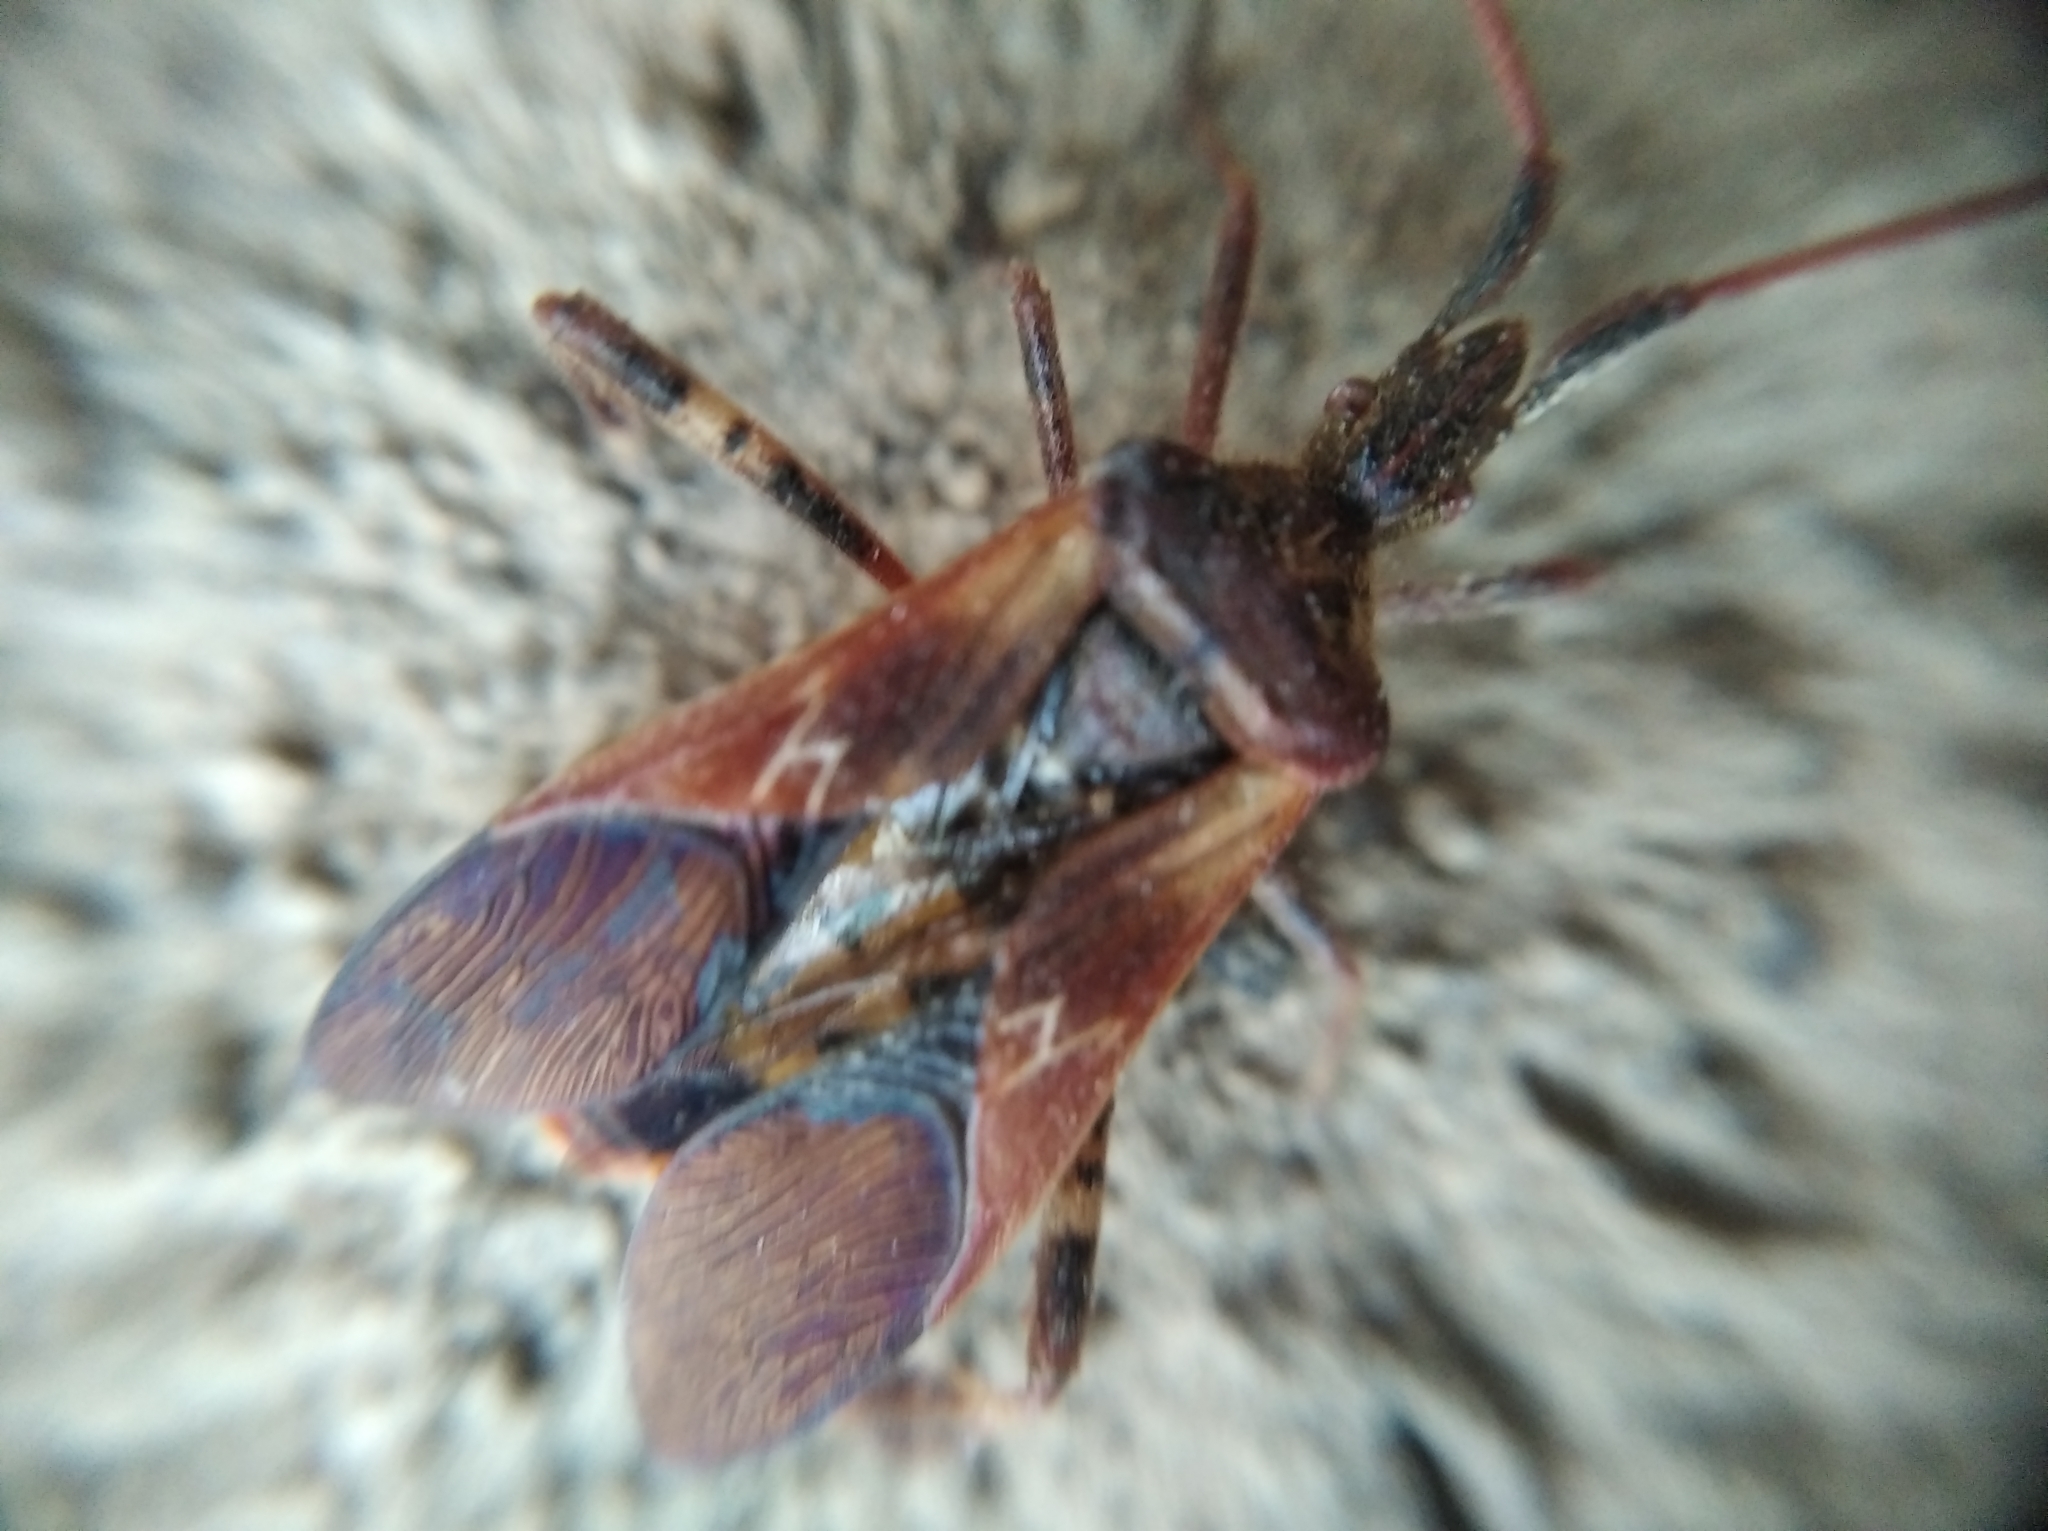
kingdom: Animalia
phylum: Arthropoda
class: Insecta
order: Hemiptera
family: Coreidae
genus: Leptoglossus
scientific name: Leptoglossus occidentalis
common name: Western conifer-seed bug
